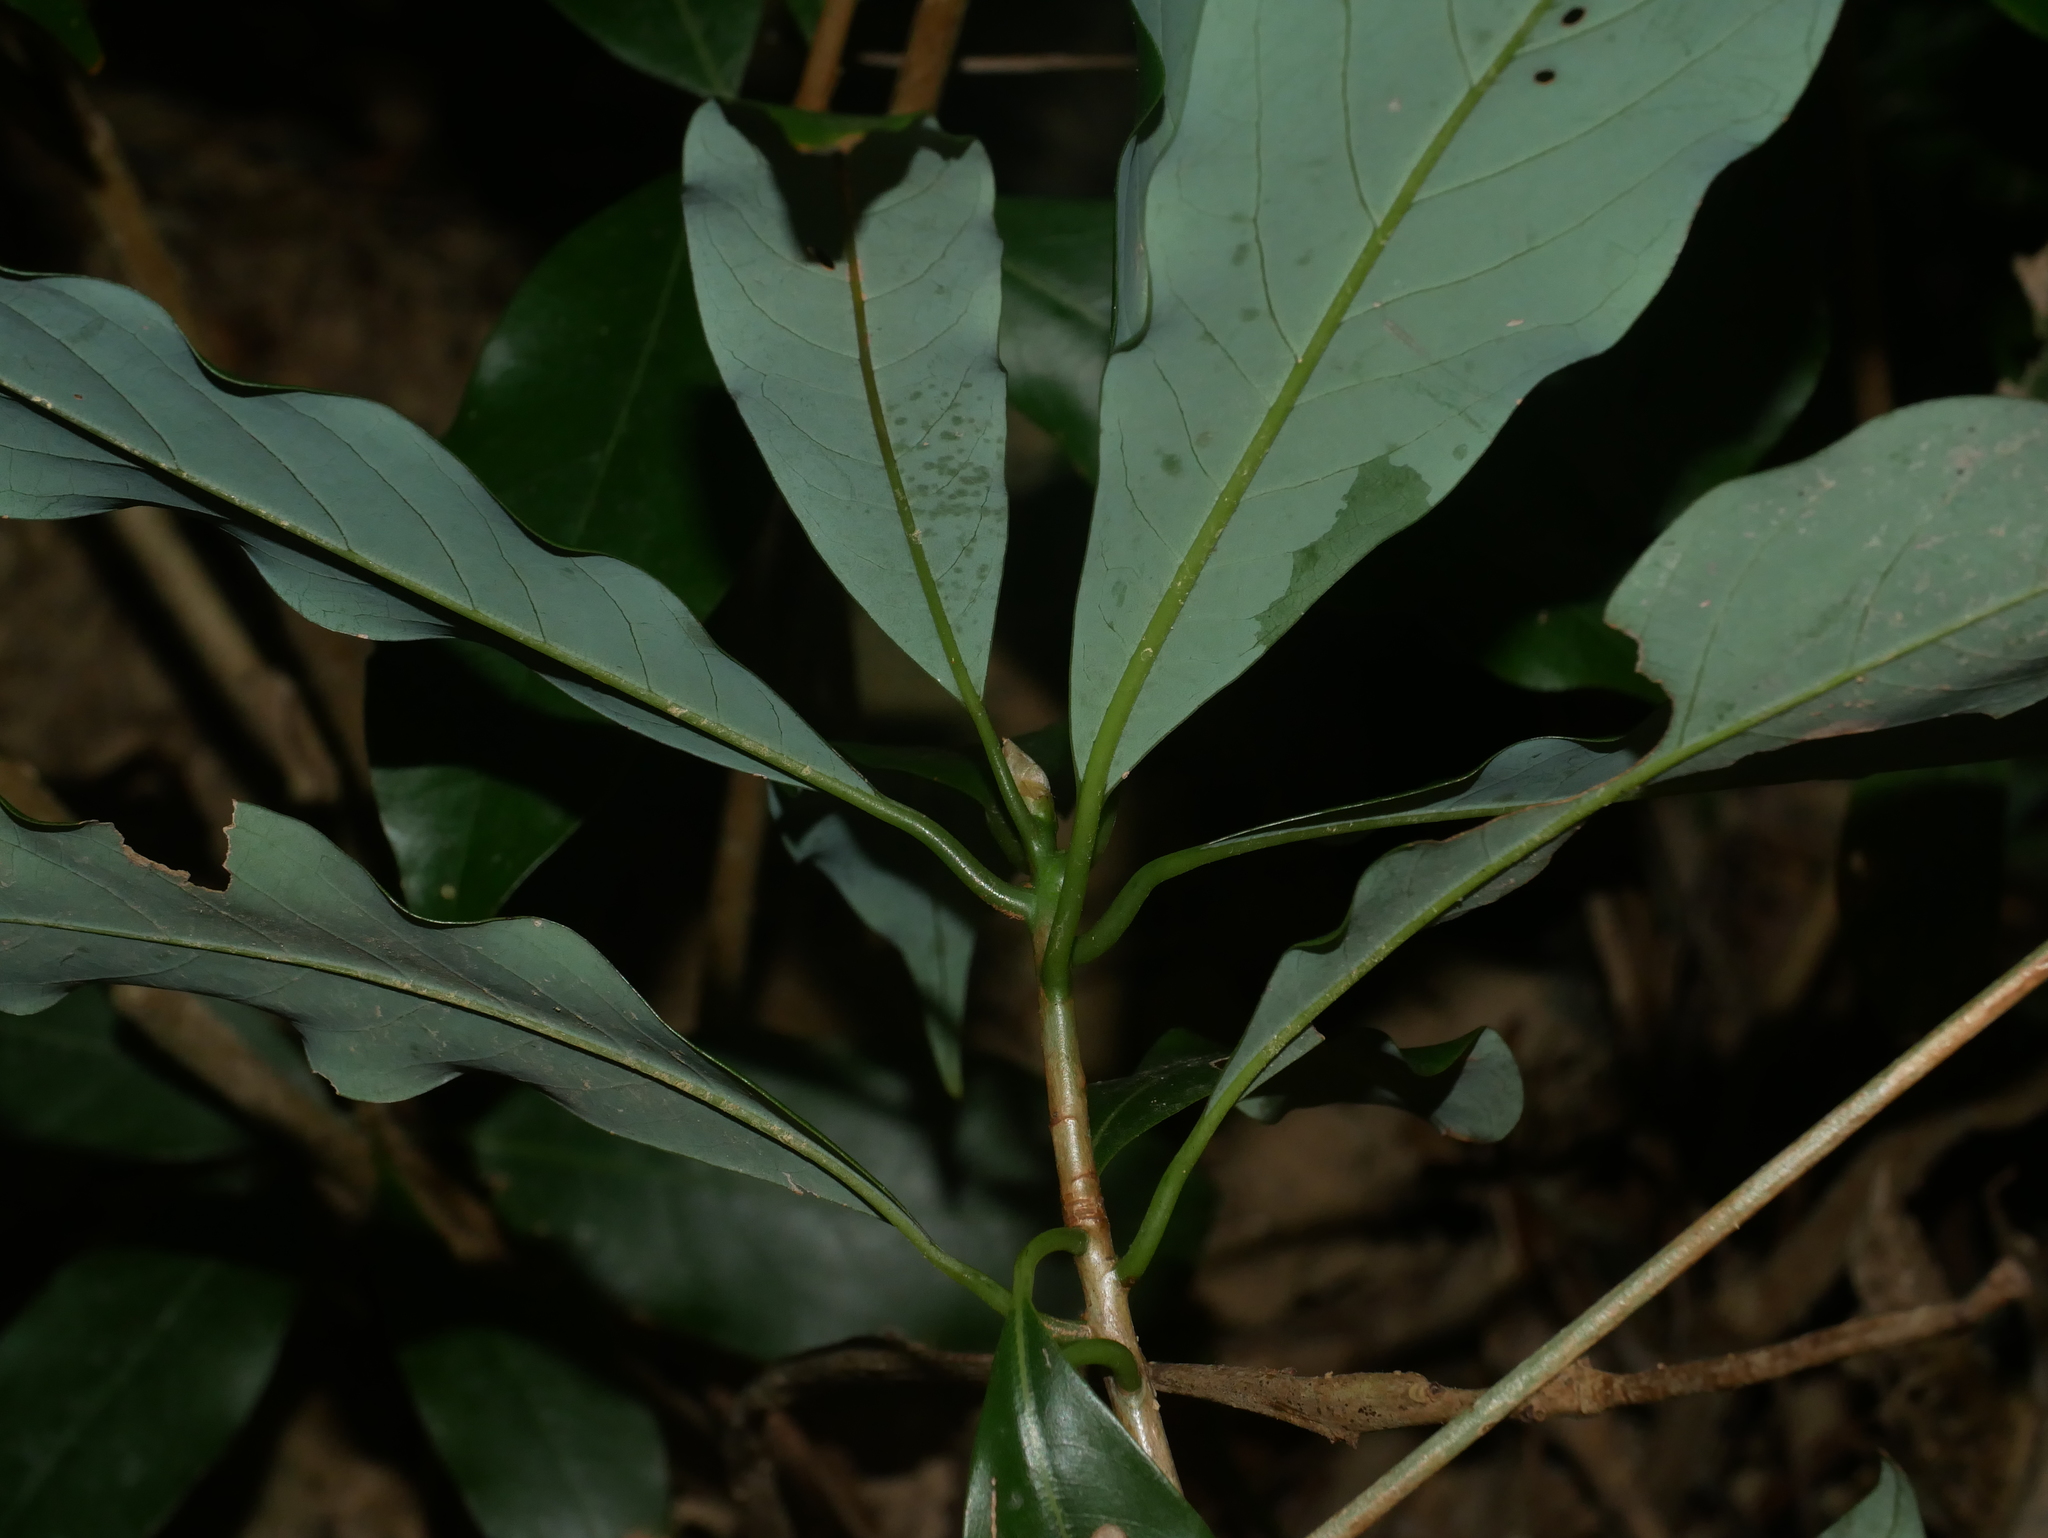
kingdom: Plantae
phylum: Tracheophyta
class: Magnoliopsida
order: Laurales
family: Lauraceae
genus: Machilus
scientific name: Machilus japonica
